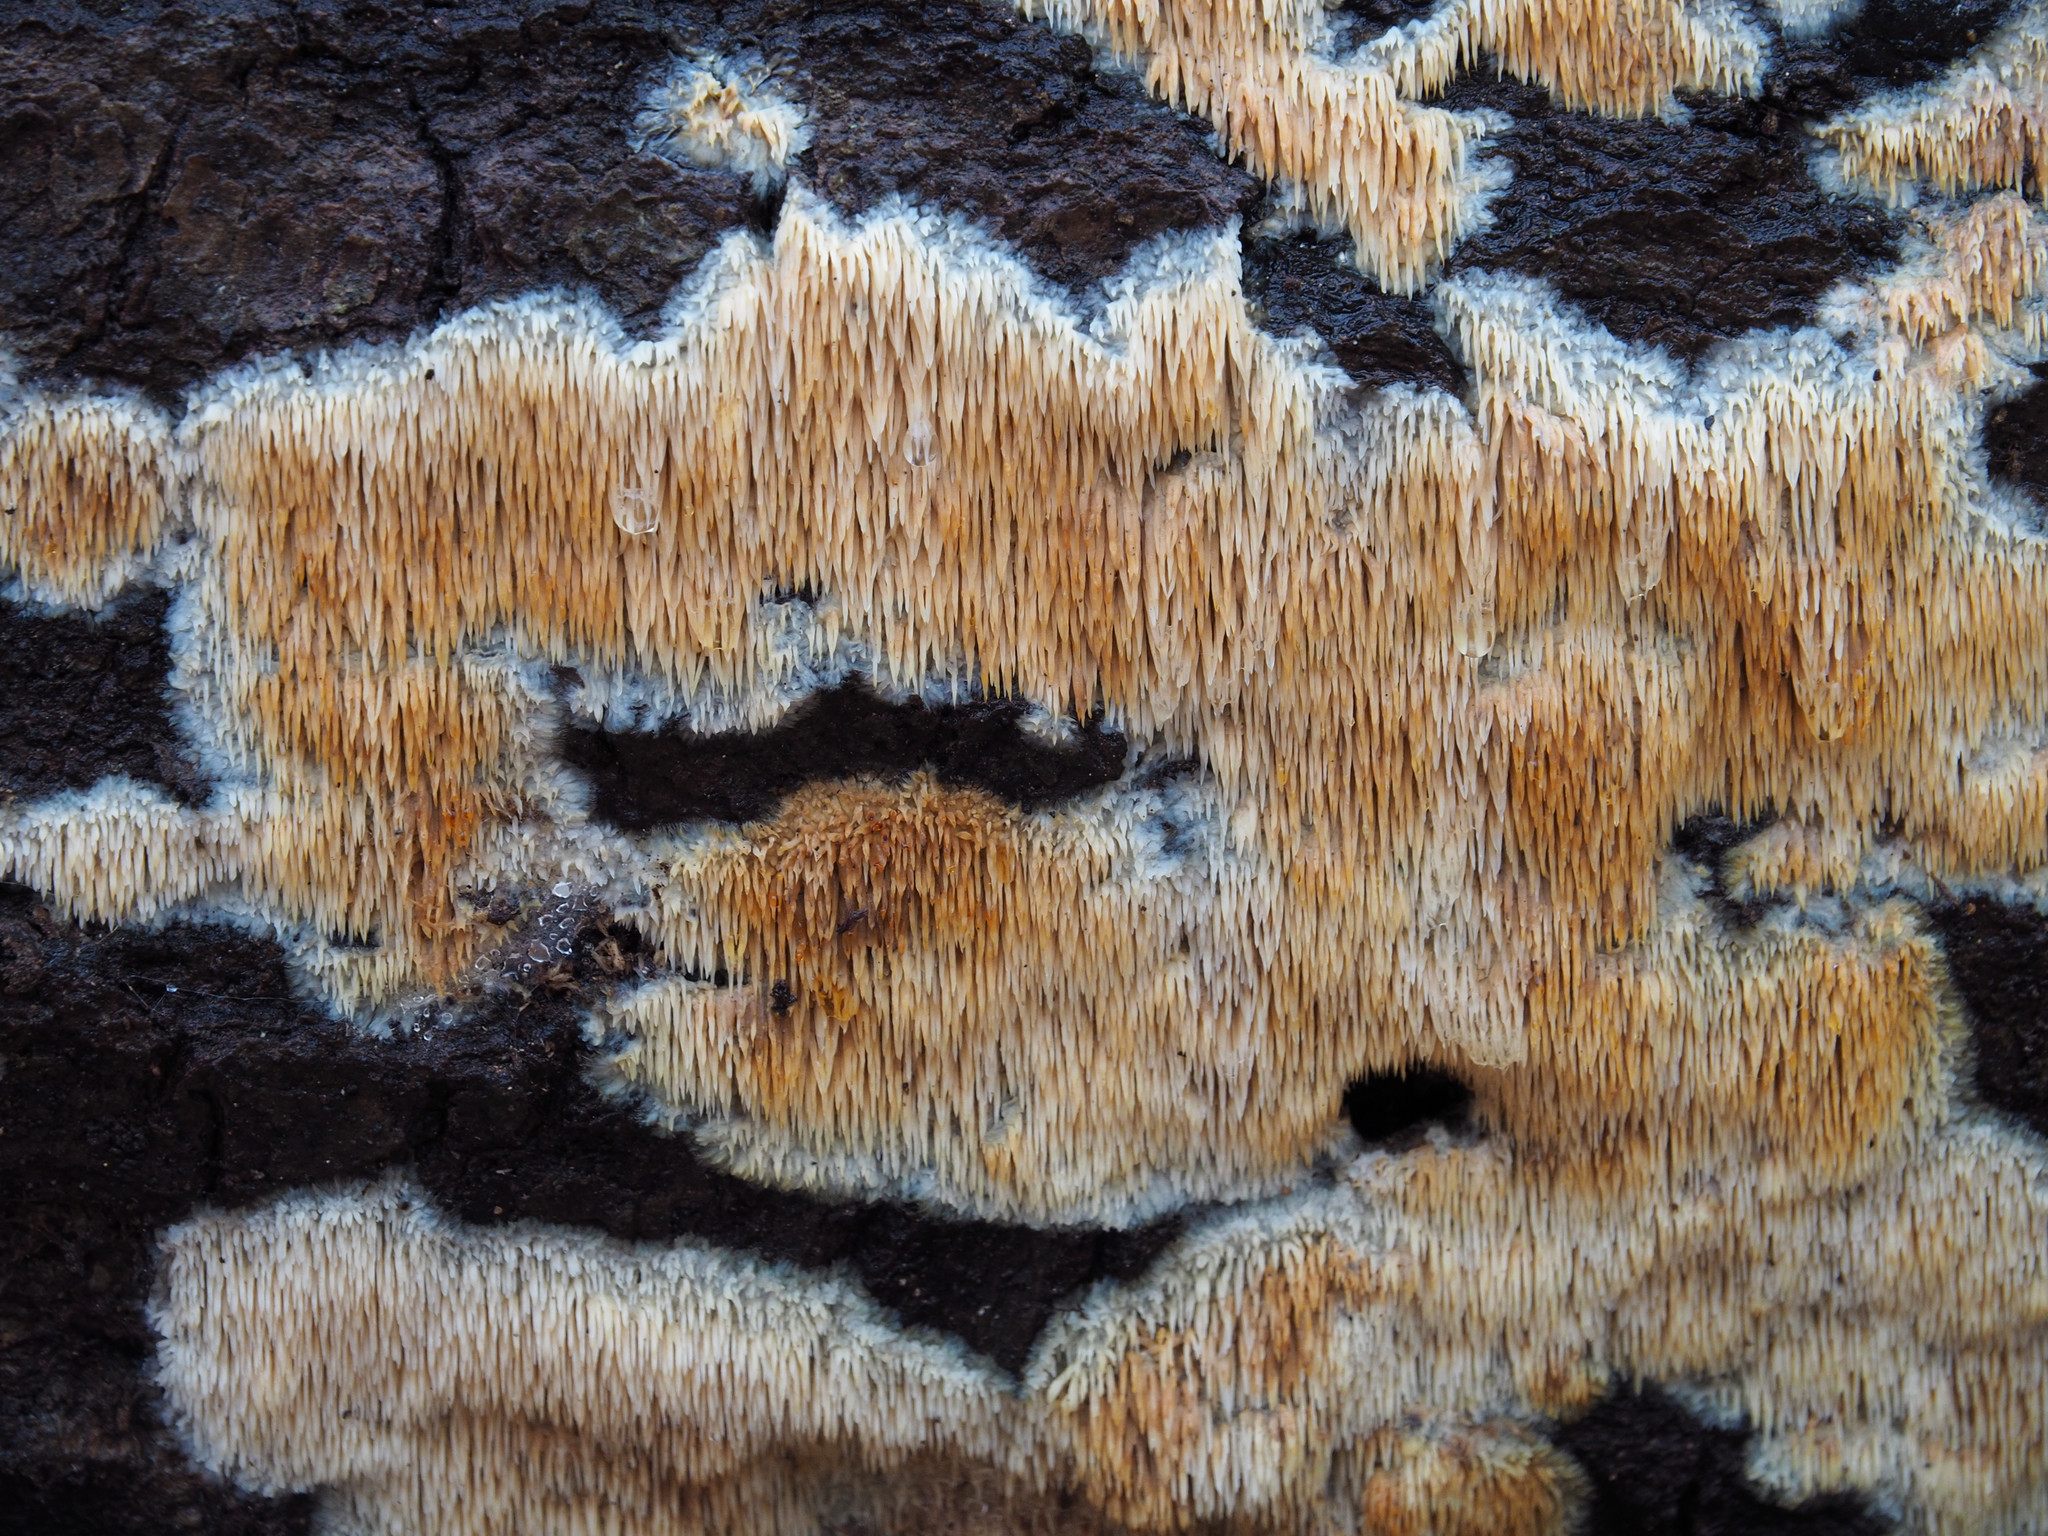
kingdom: Fungi
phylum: Basidiomycota
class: Agaricomycetes
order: Agaricales
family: Radulomycetaceae
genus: Radulomyces
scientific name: Radulomyces copelandii
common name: Asian beauty
